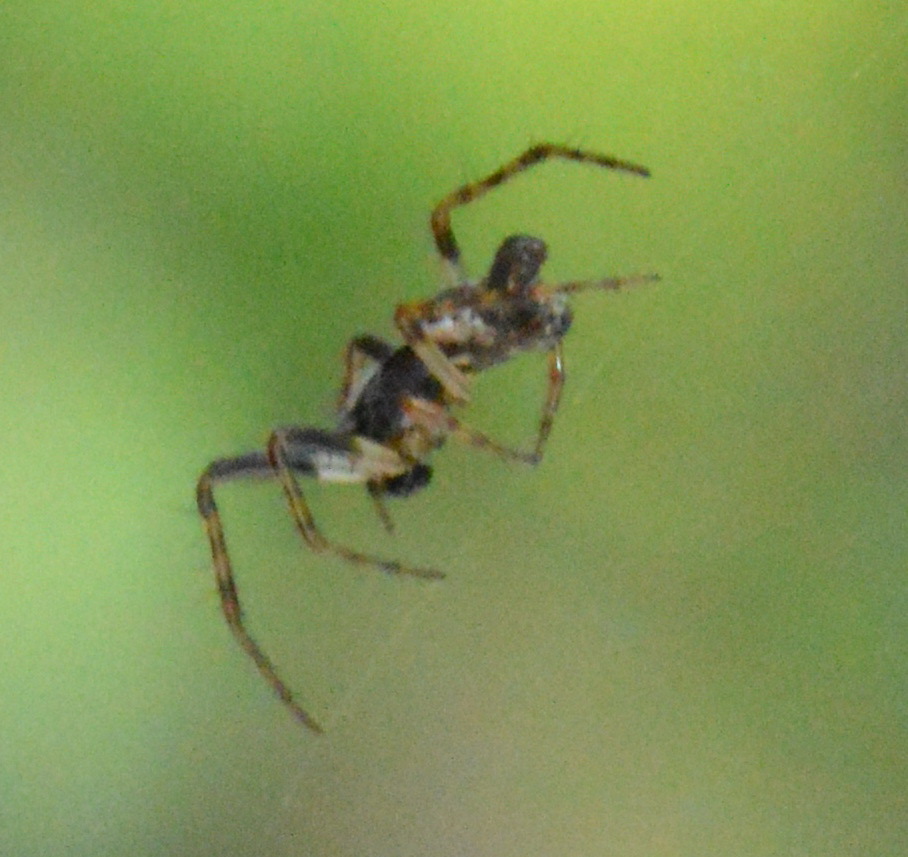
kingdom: Animalia
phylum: Arthropoda
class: Arachnida
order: Araneae
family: Araneidae
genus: Cyclosa
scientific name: Cyclosa conica
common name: Conical trashline orbweaver
